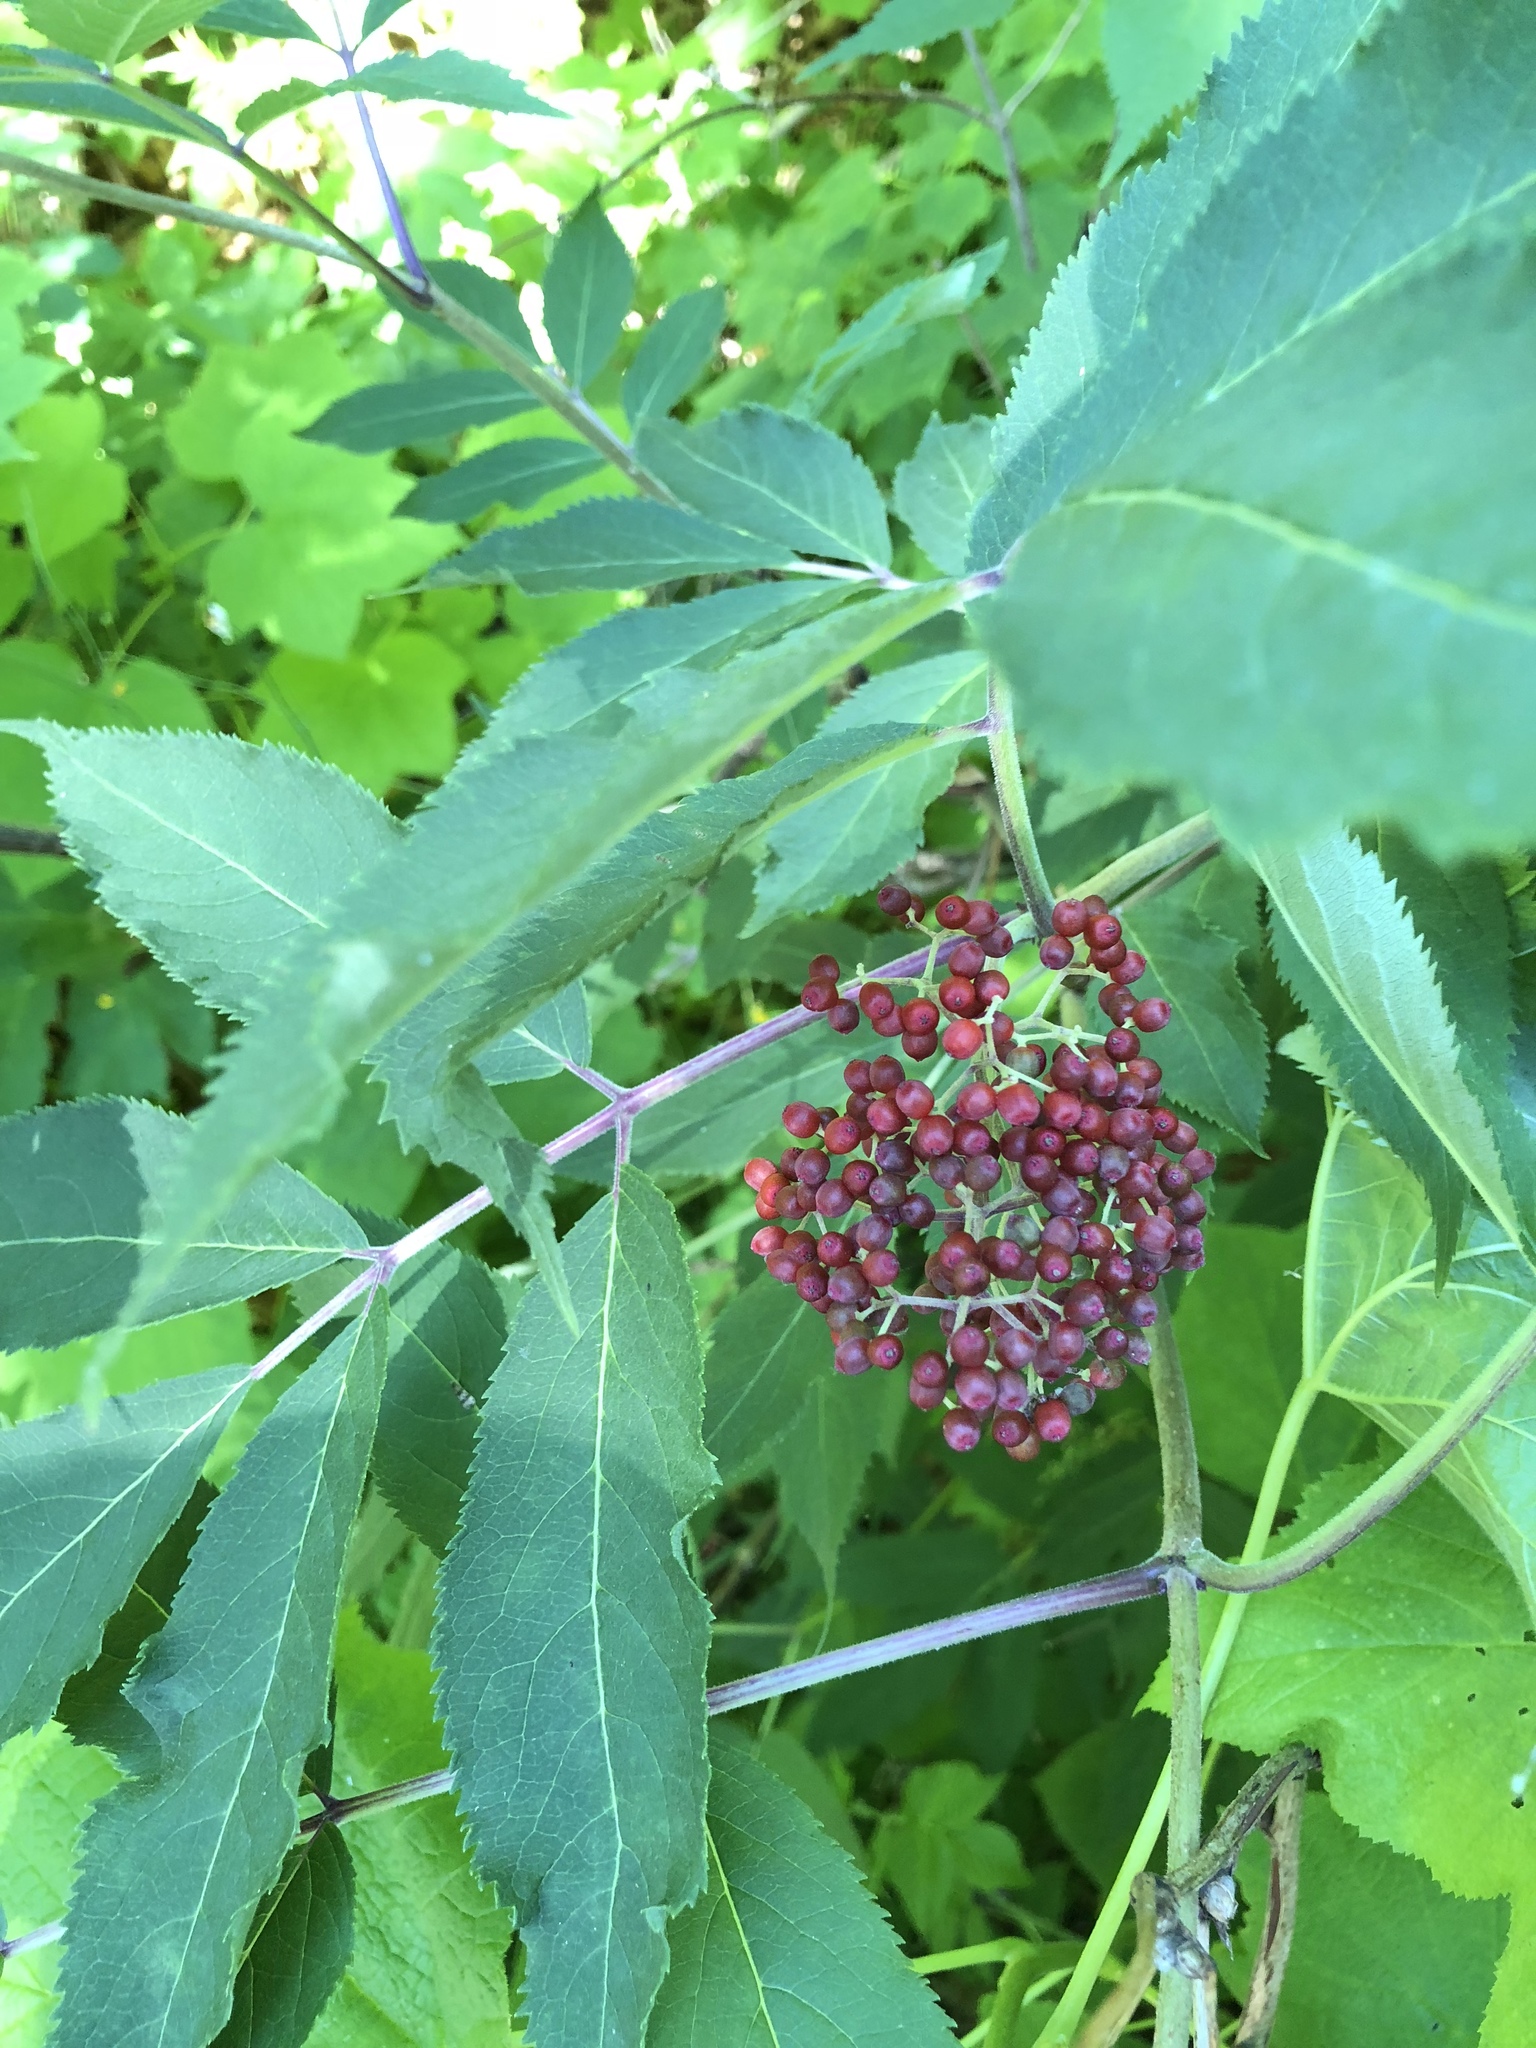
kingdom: Plantae
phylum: Tracheophyta
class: Magnoliopsida
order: Dipsacales
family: Viburnaceae
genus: Sambucus
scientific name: Sambucus racemosa
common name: Red-berried elder
